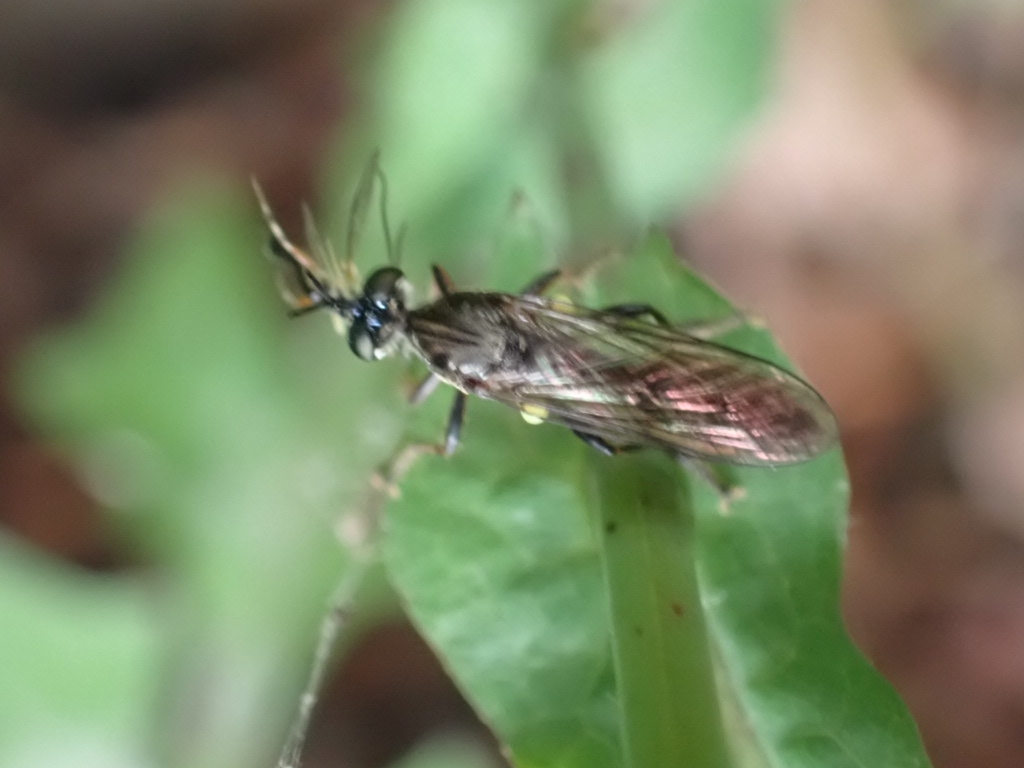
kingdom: Animalia
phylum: Arthropoda
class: Insecta
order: Diptera
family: Asilidae
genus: Dioctria
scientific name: Dioctria hyalipennis
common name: Stripe-legged robberfly
